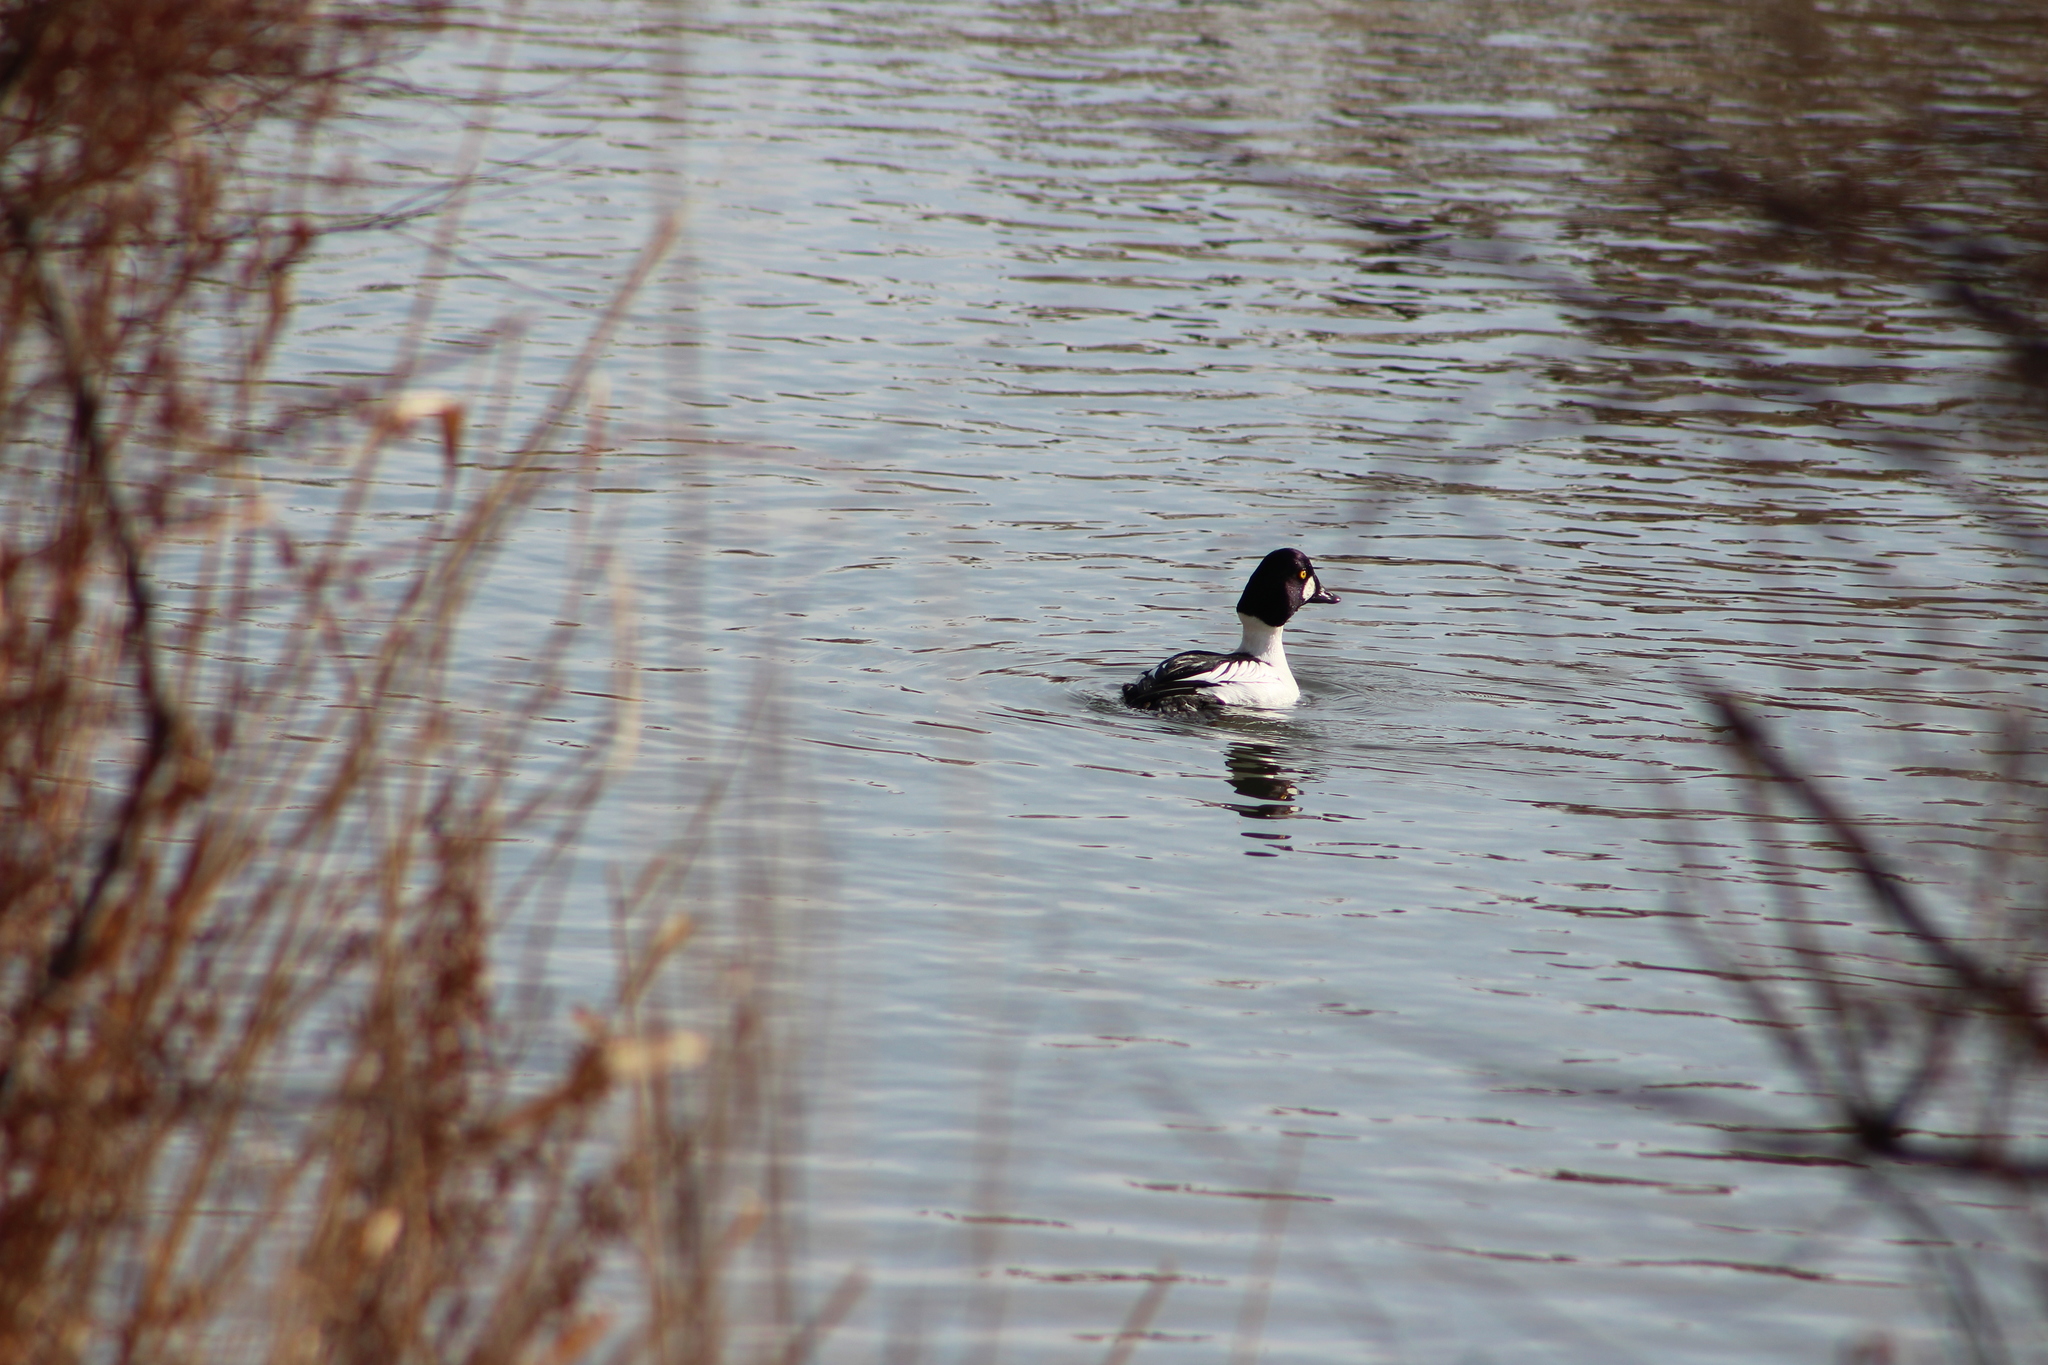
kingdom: Animalia
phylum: Chordata
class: Aves
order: Anseriformes
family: Anatidae
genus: Bucephala
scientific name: Bucephala clangula
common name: Common goldeneye
